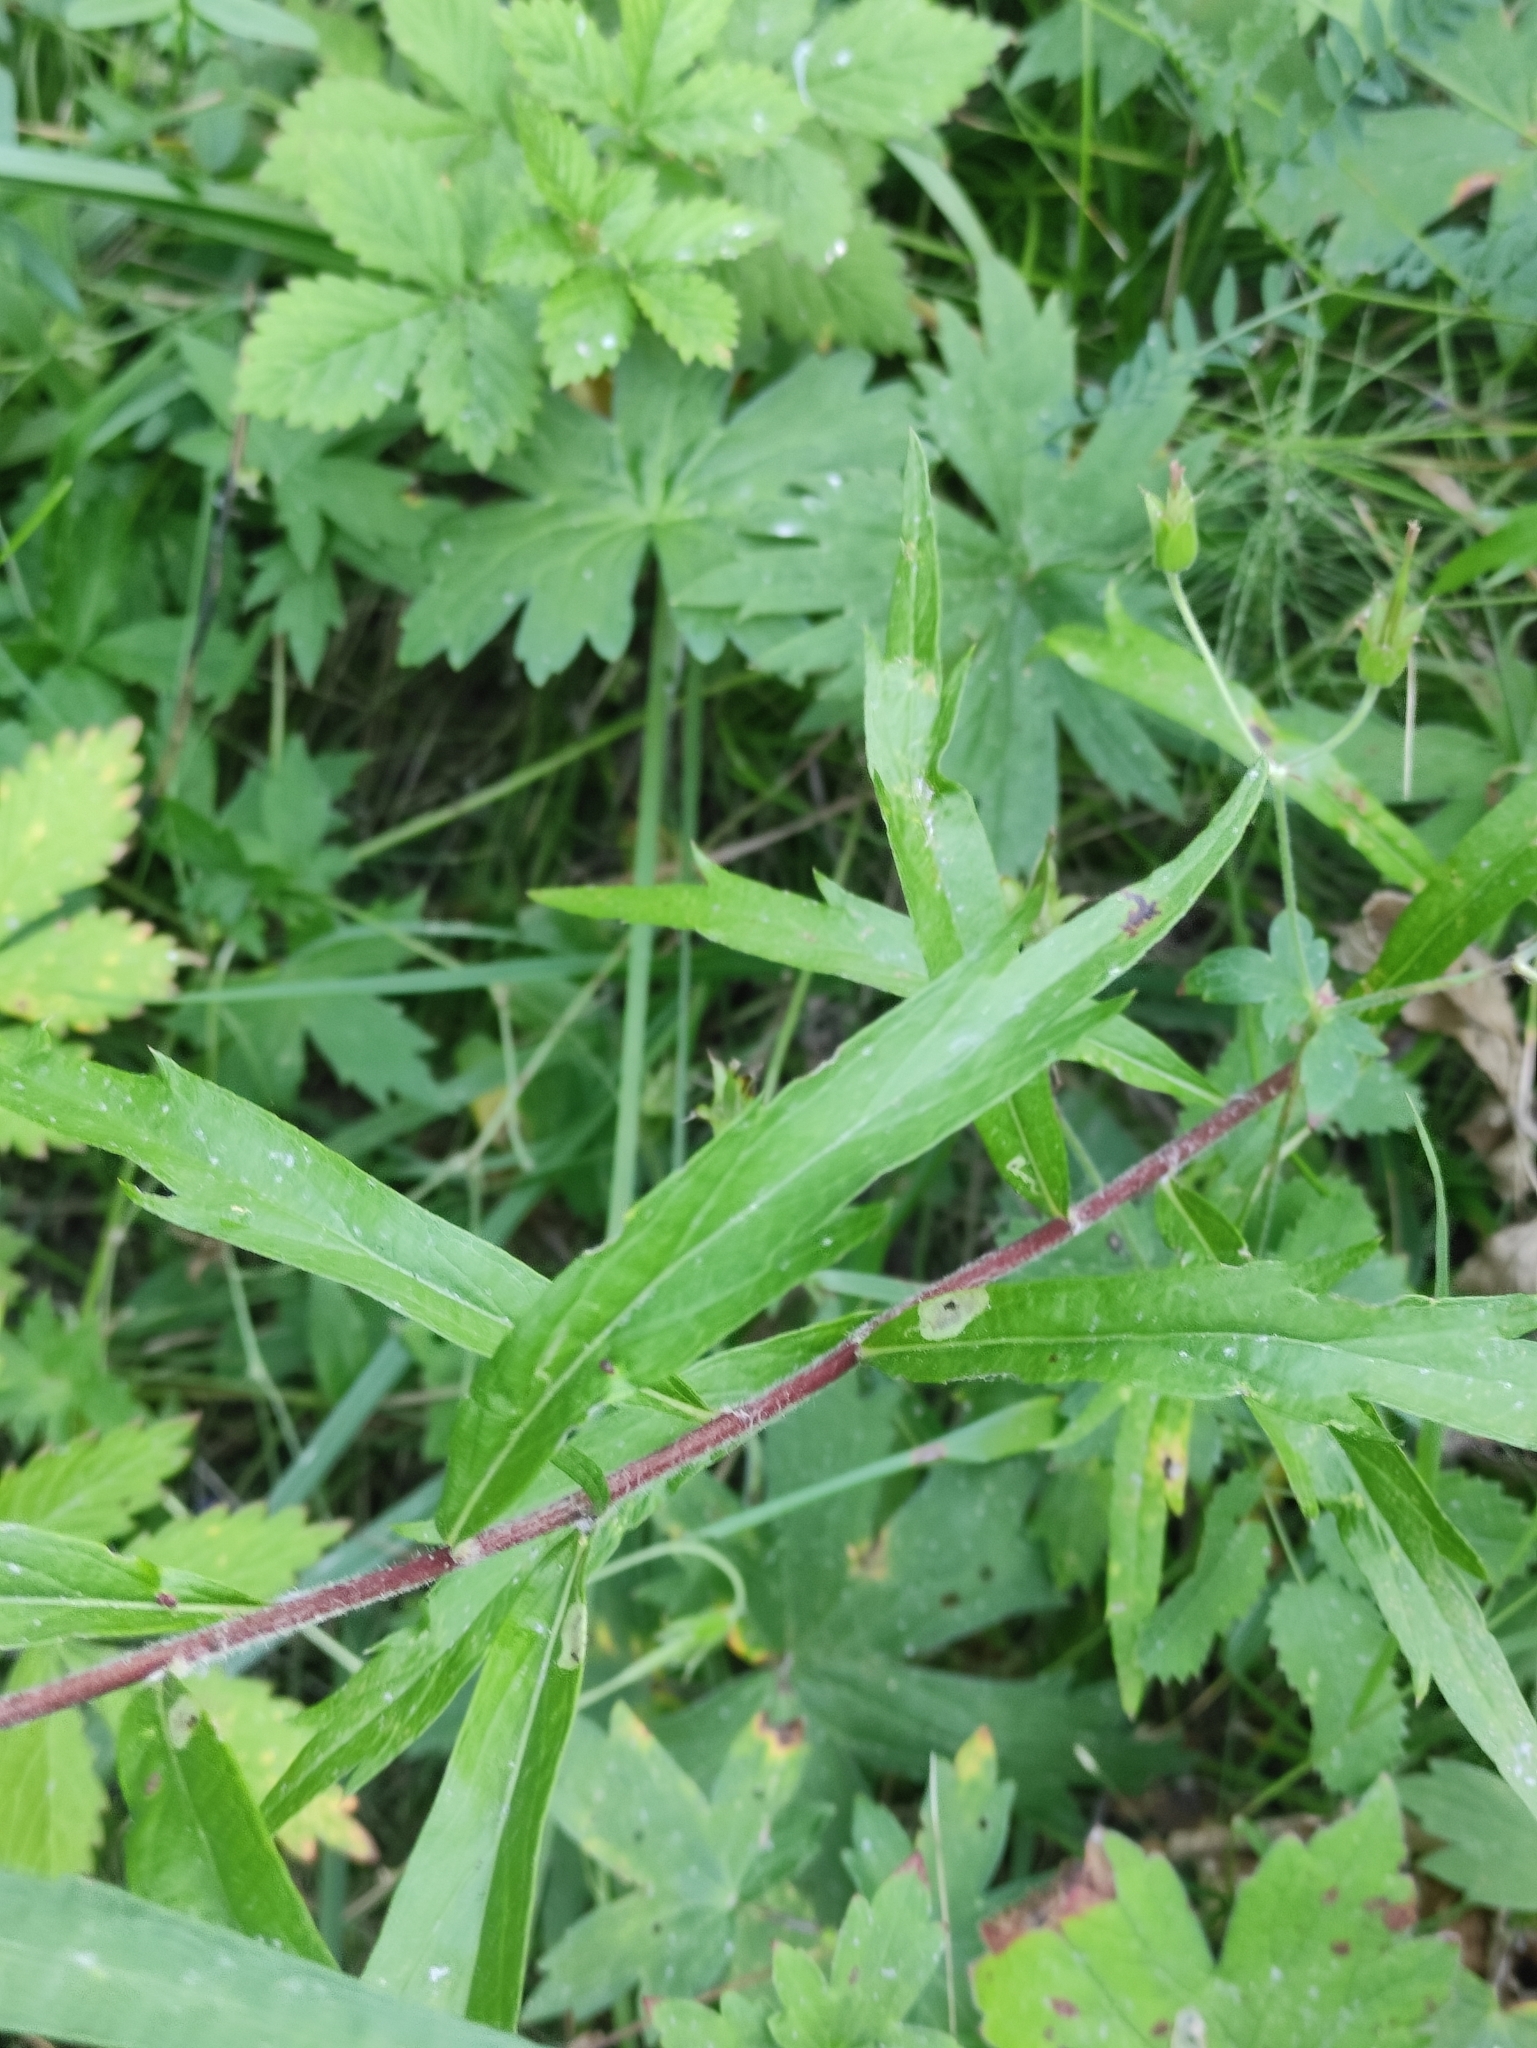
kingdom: Plantae
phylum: Tracheophyta
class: Magnoliopsida
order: Asterales
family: Asteraceae
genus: Artemisia
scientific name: Artemisia integrifolia
